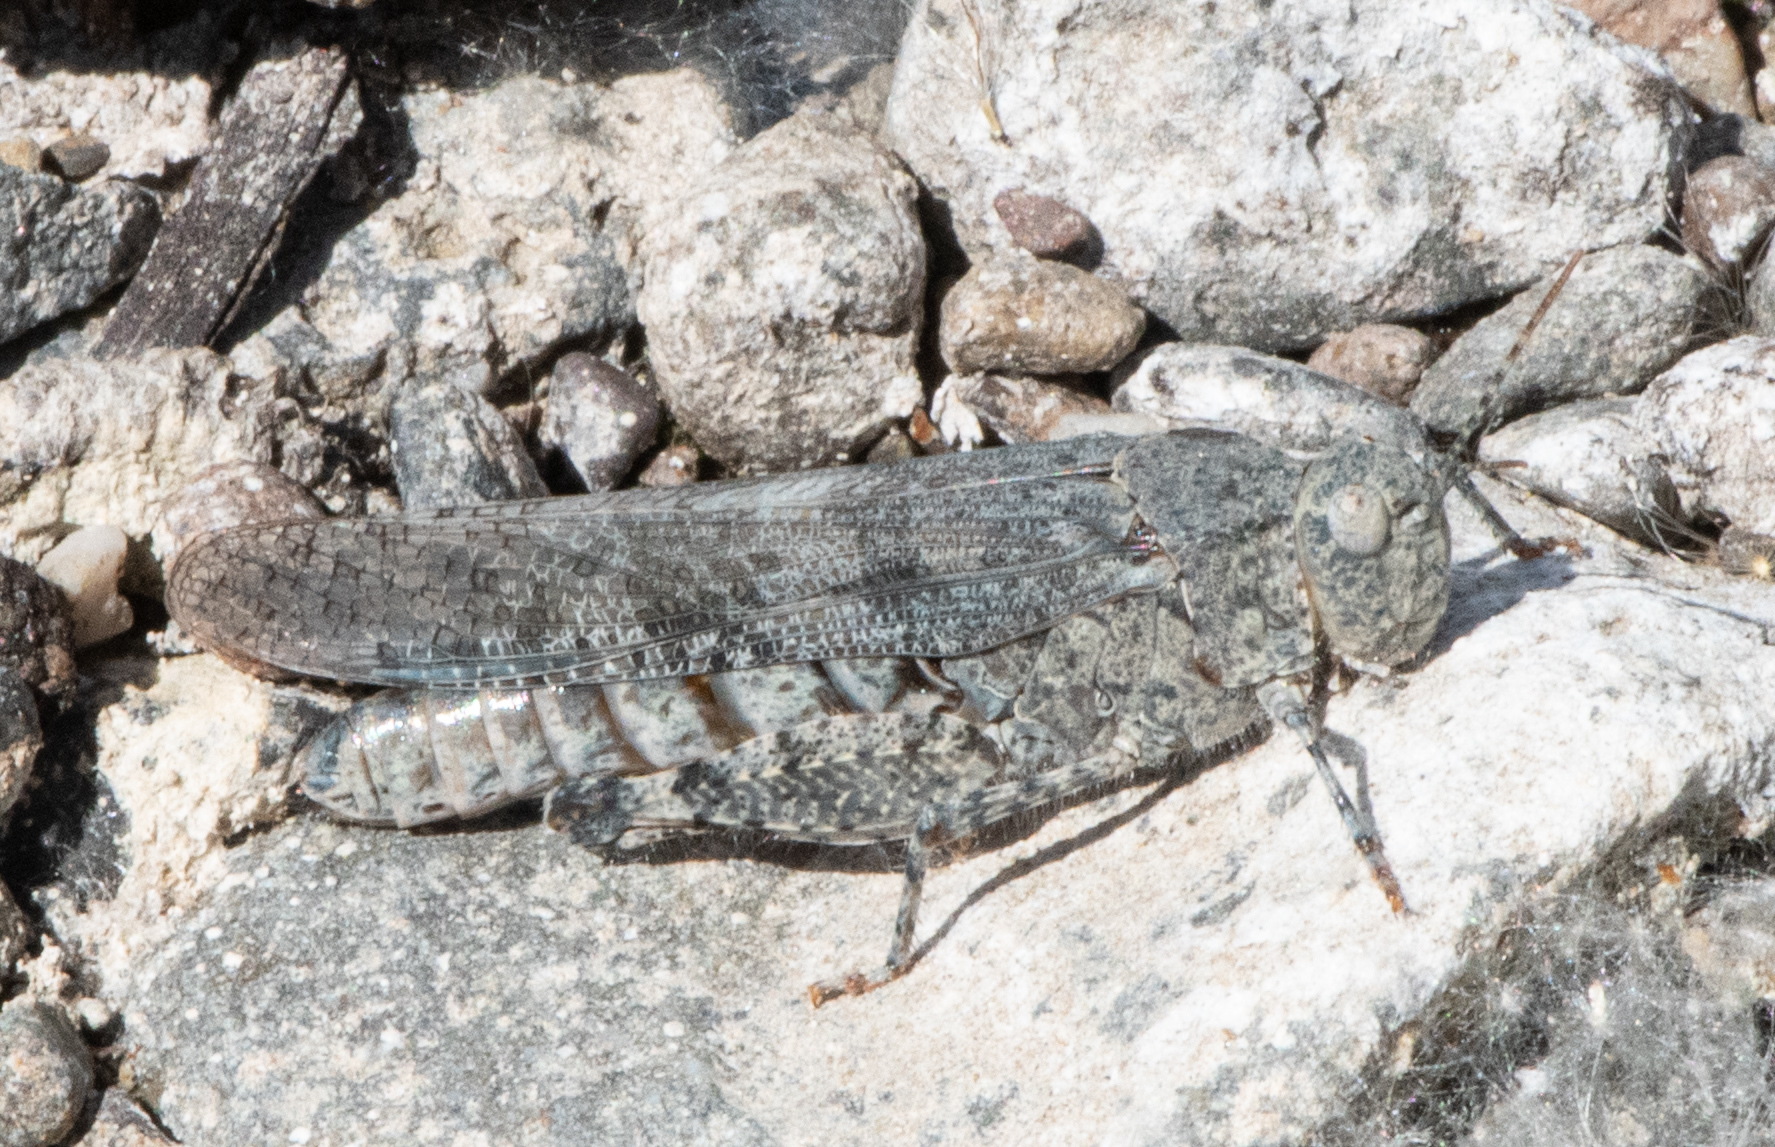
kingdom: Animalia
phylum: Arthropoda
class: Insecta
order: Orthoptera
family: Acrididae
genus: Trimerotropis
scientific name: Trimerotropis occidentalis
